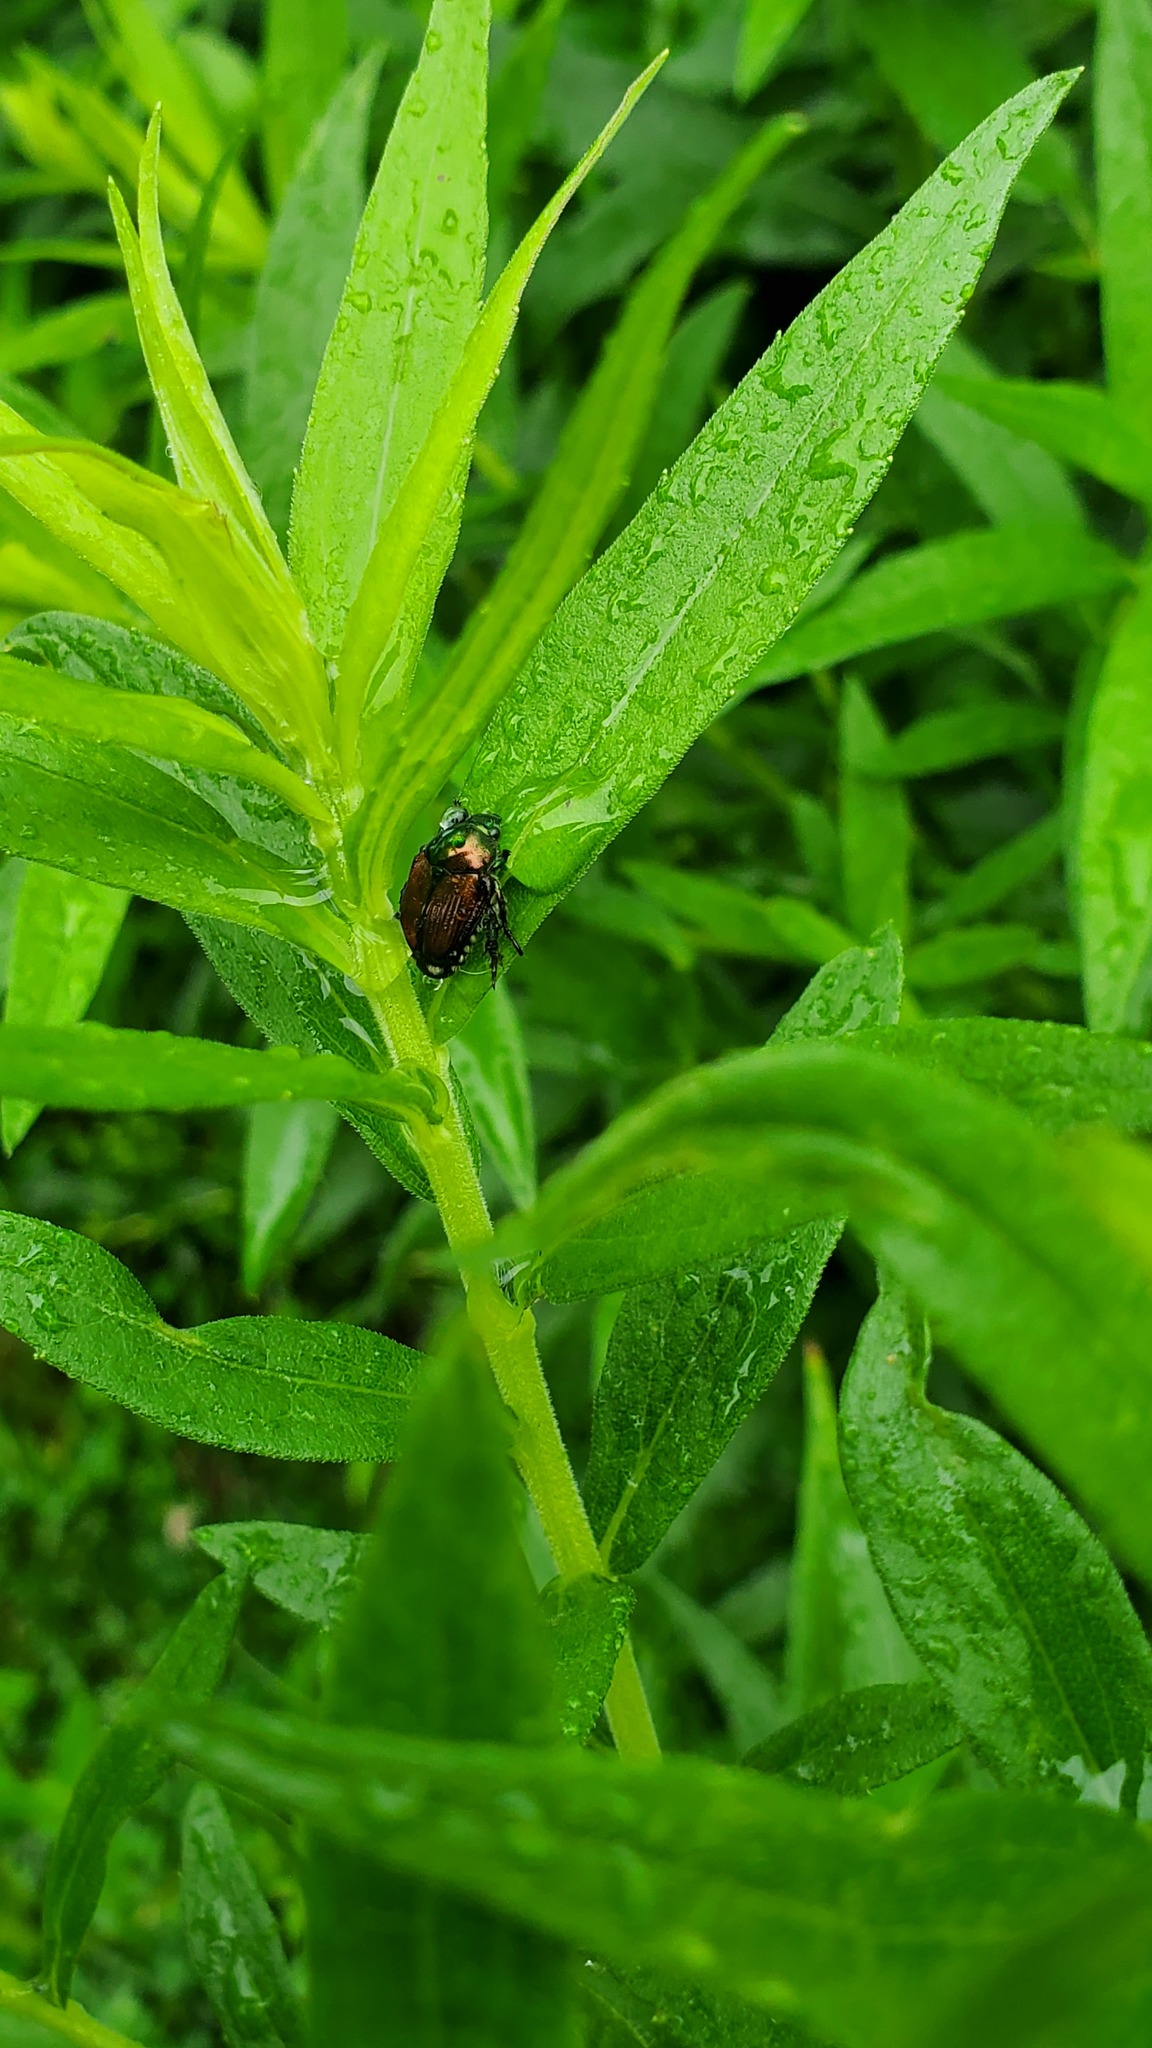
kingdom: Animalia
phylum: Arthropoda
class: Insecta
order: Coleoptera
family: Scarabaeidae
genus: Popillia
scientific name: Popillia japonica
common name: Japanese beetle
